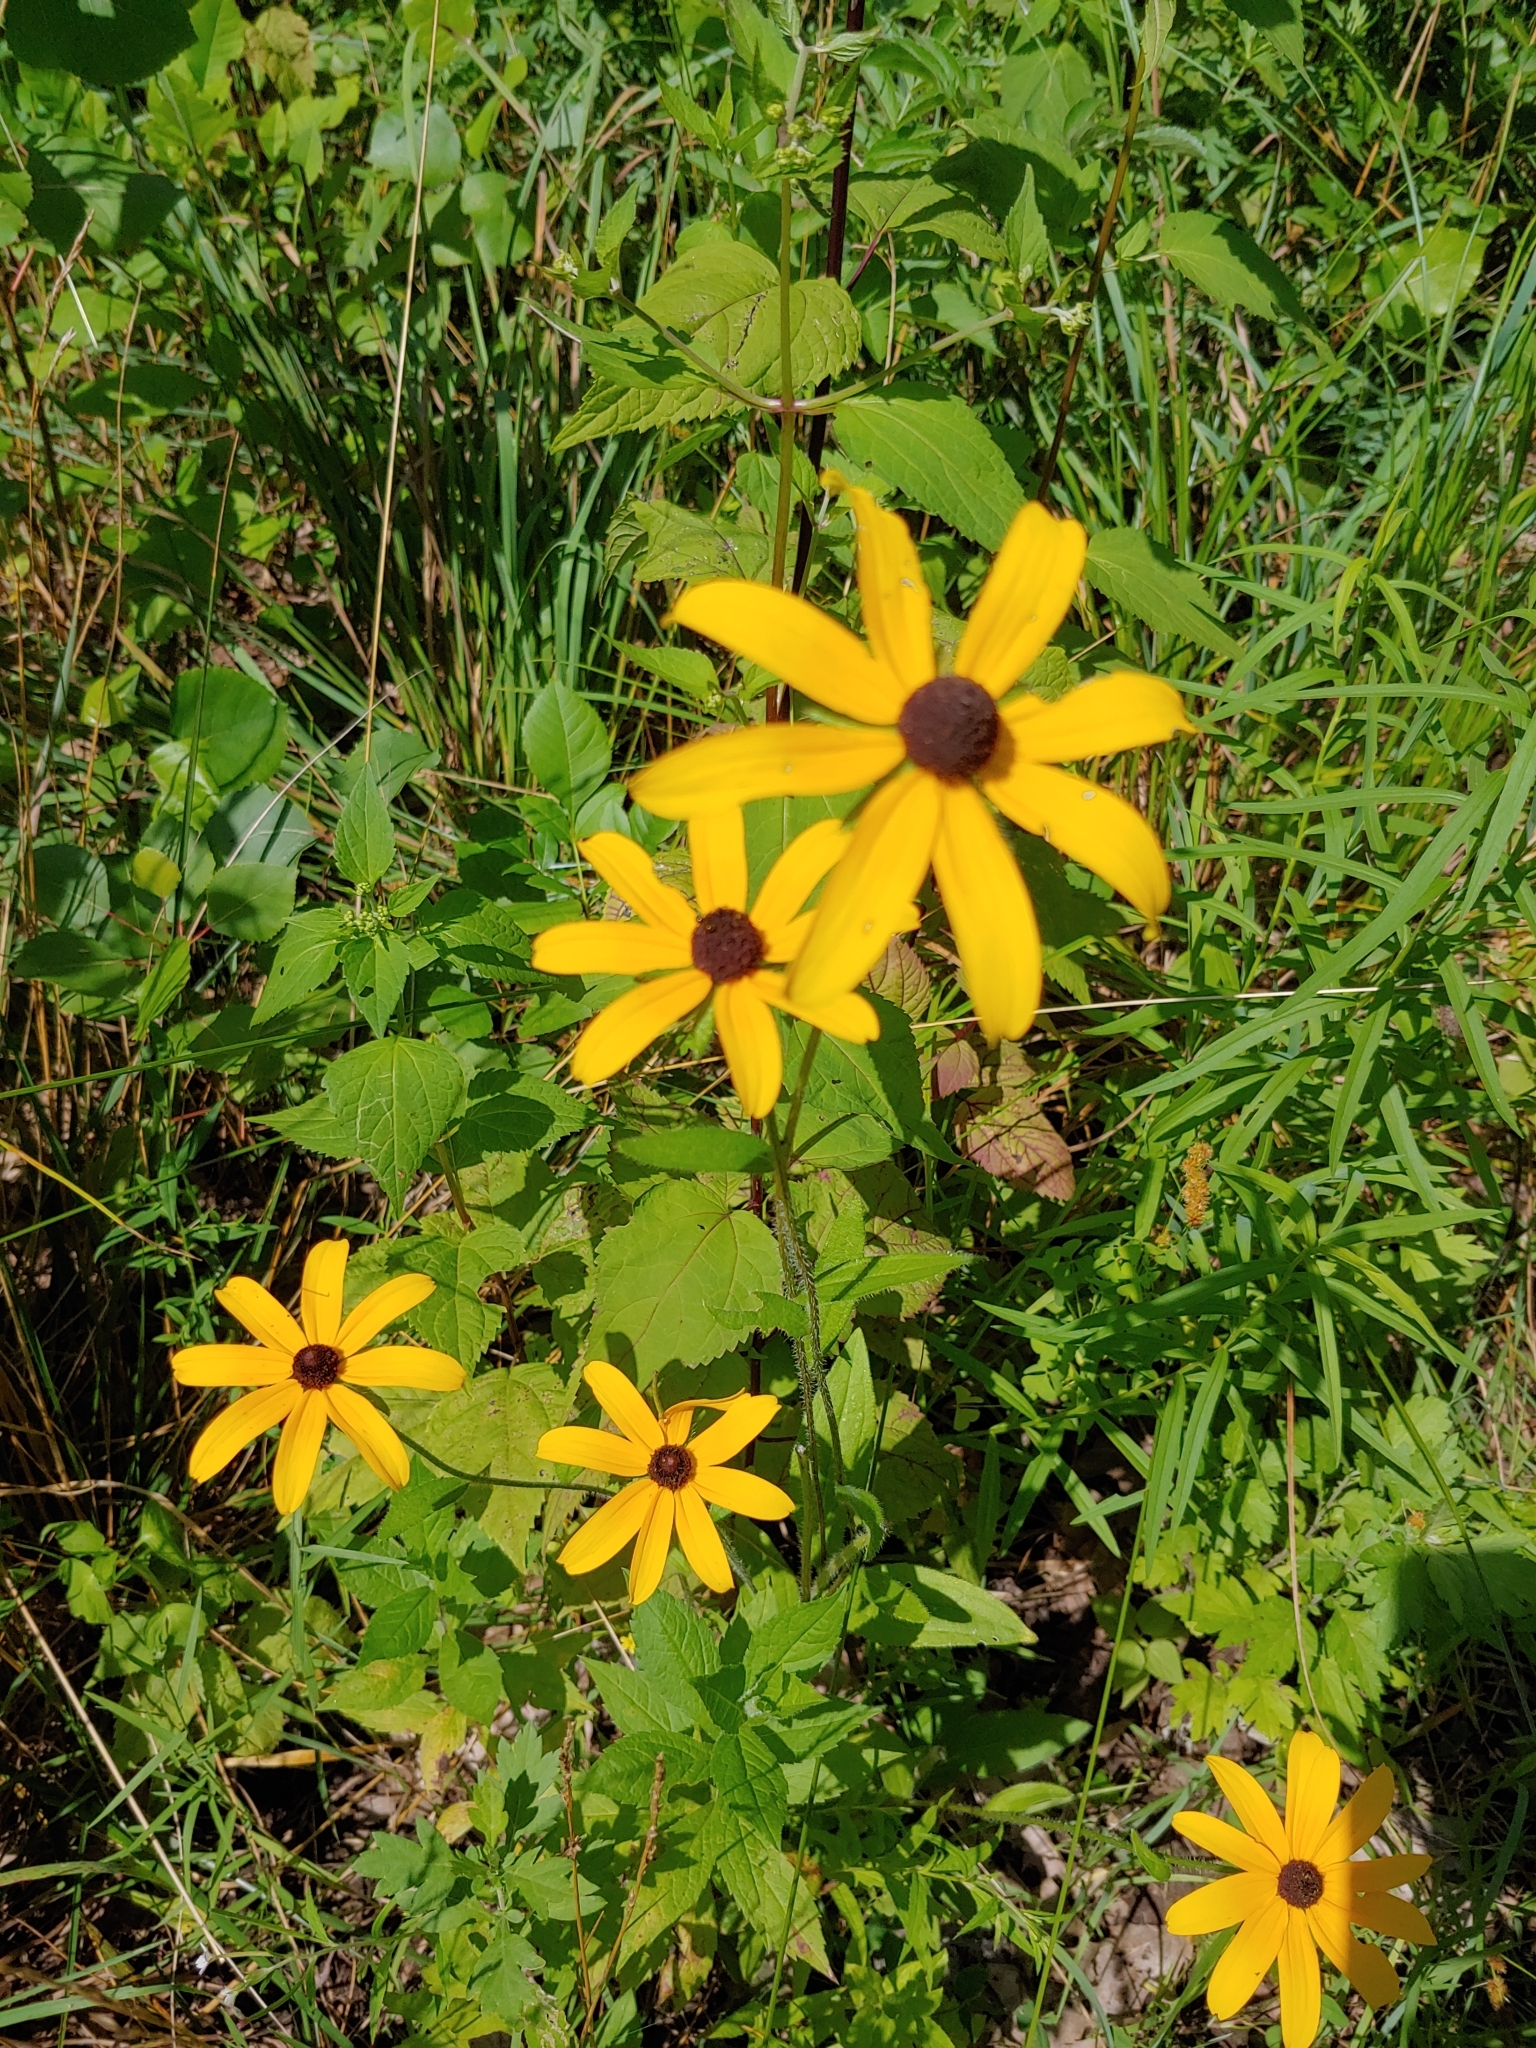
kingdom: Plantae
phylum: Tracheophyta
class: Magnoliopsida
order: Asterales
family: Asteraceae
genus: Rudbeckia
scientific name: Rudbeckia hirta
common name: Black-eyed-susan
